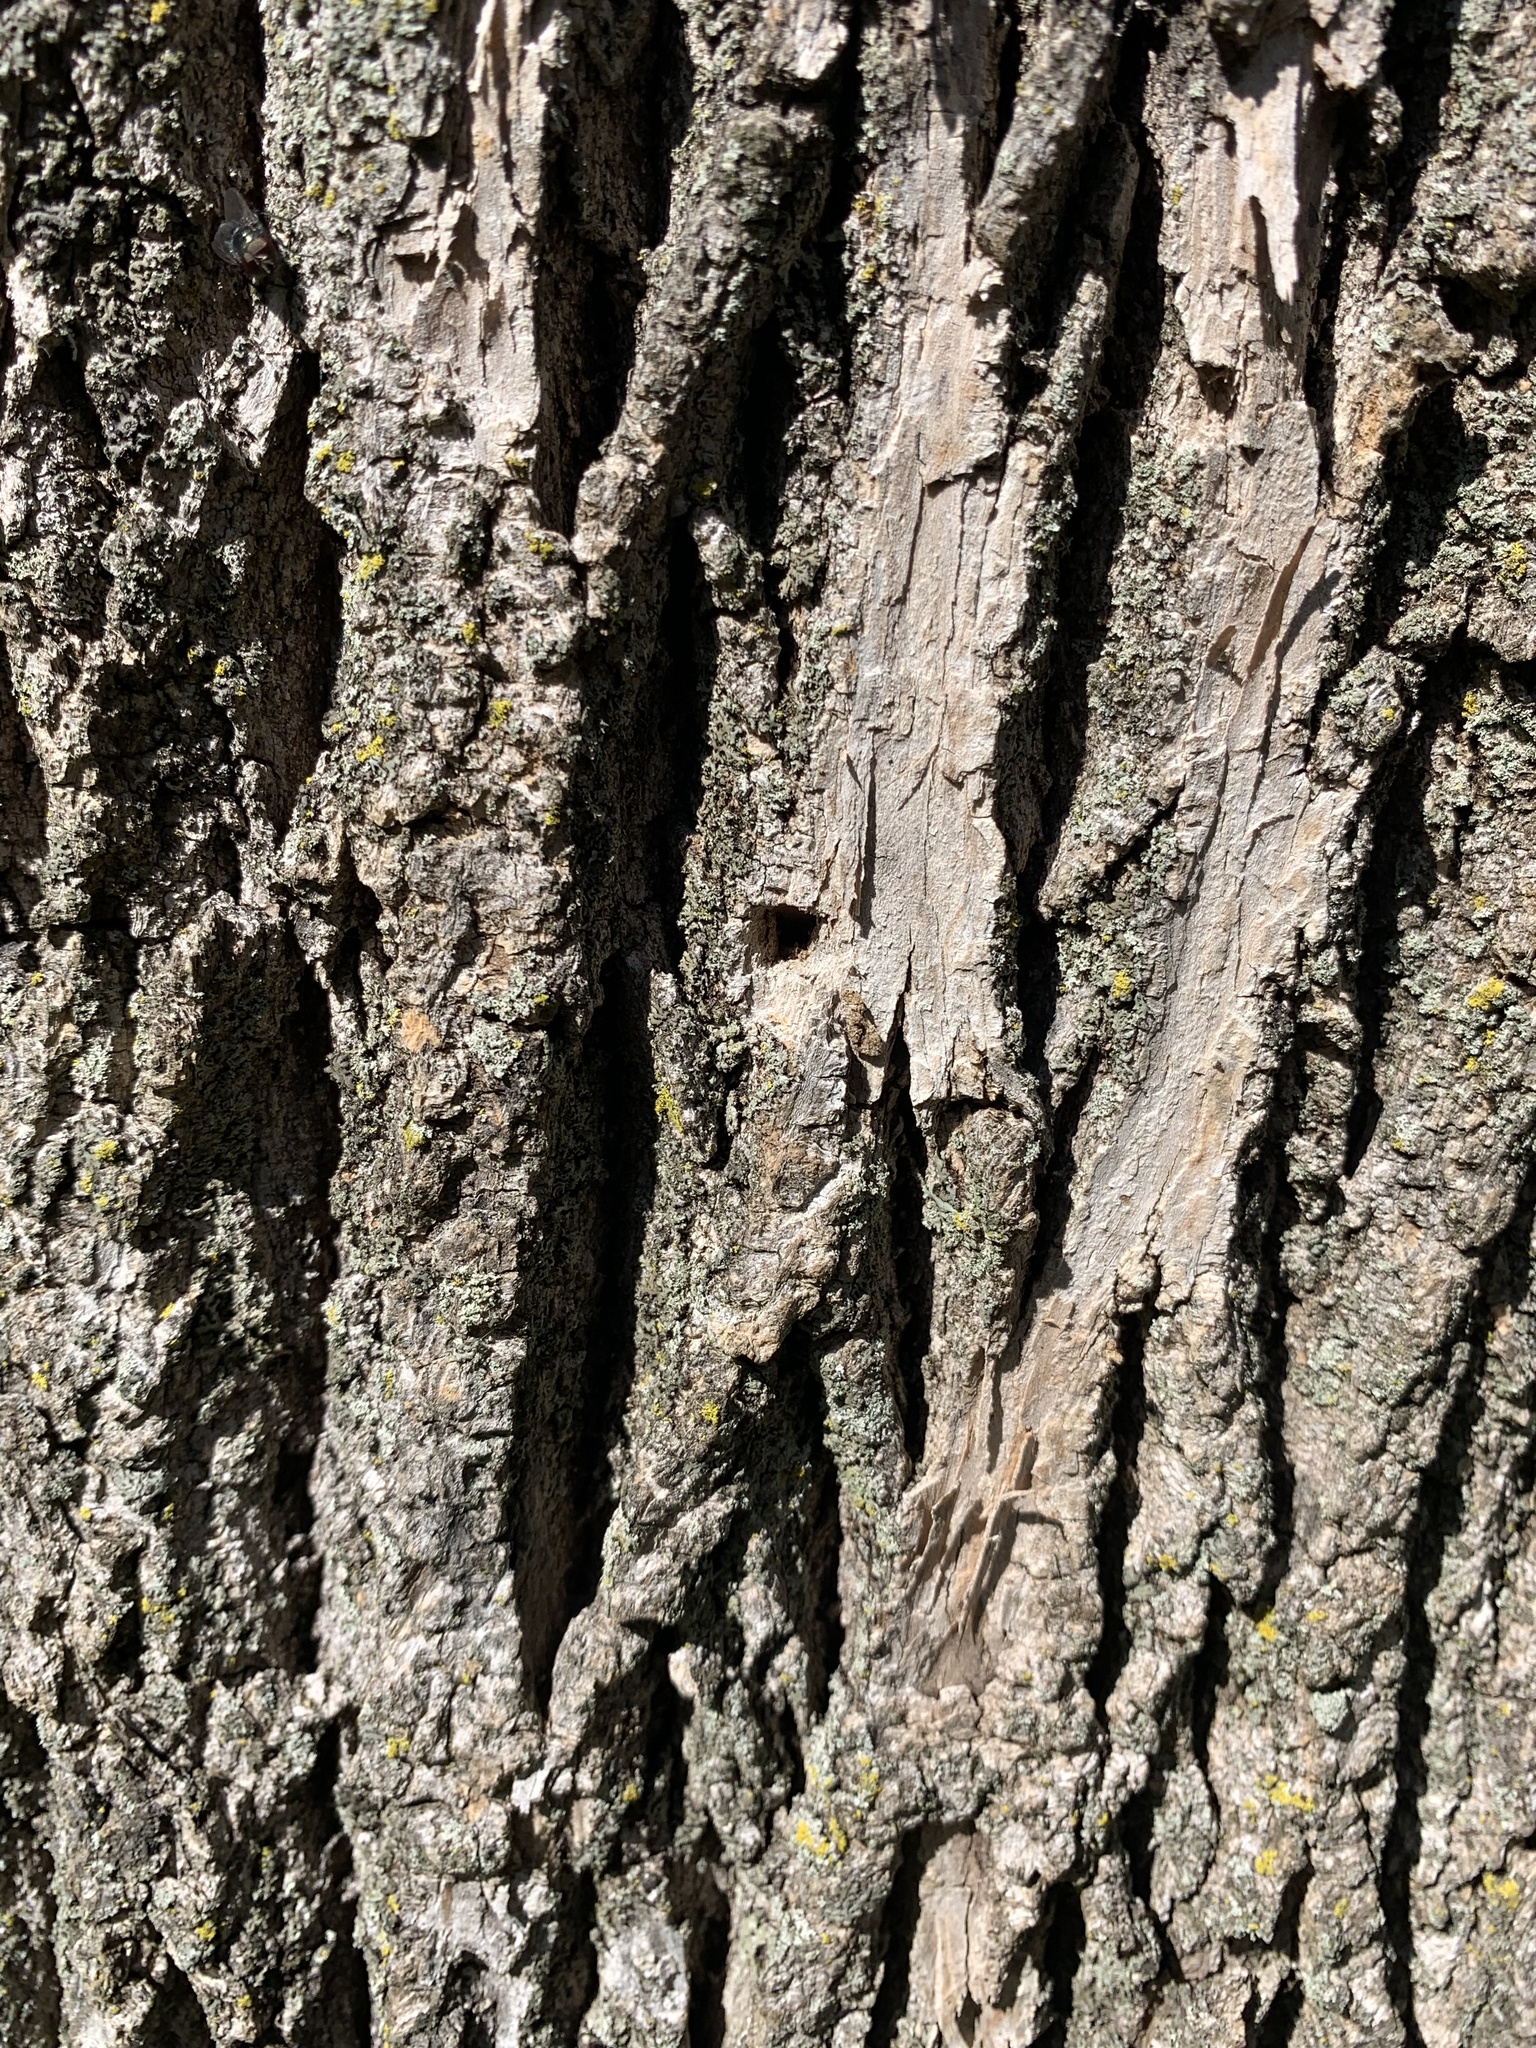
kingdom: Animalia
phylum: Arthropoda
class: Insecta
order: Coleoptera
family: Buprestidae
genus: Agrilus
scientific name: Agrilus planipennis
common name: Emerald ash borer
